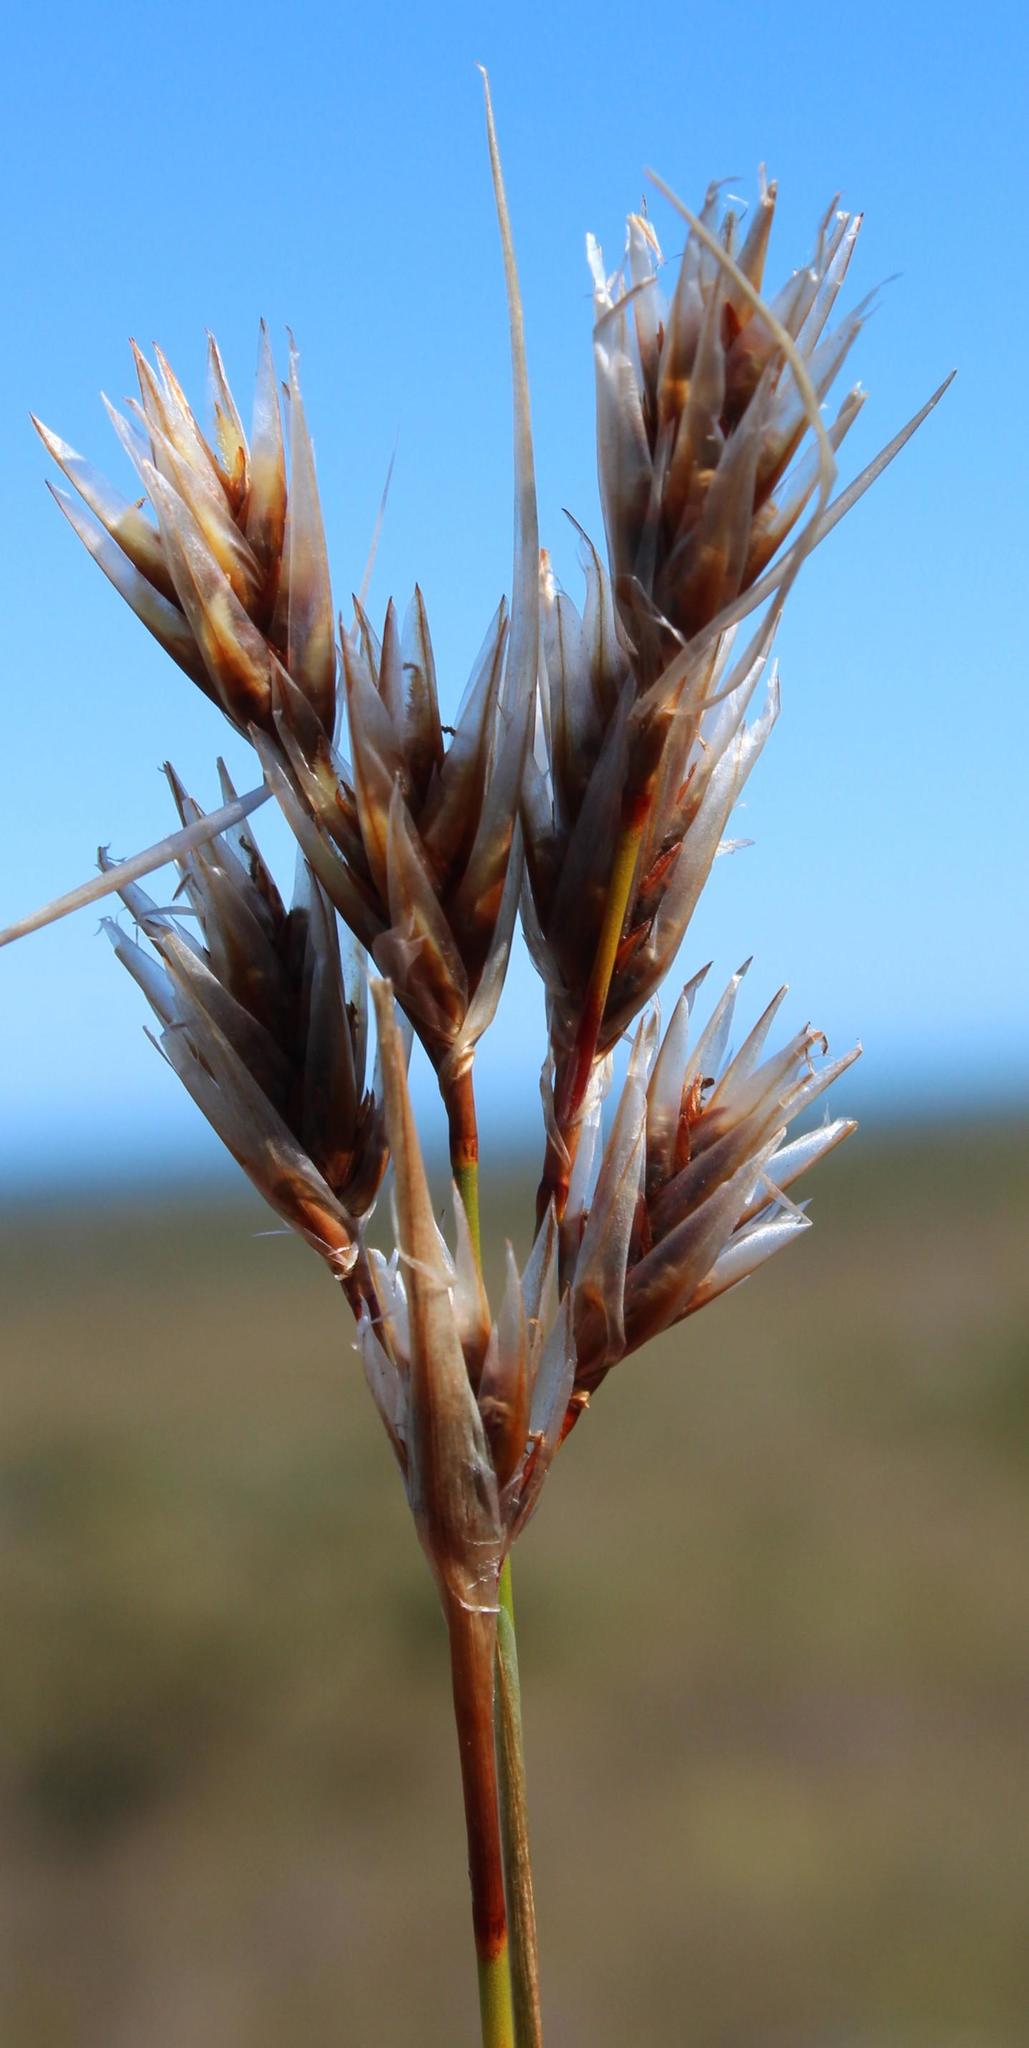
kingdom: Plantae
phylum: Tracheophyta
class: Liliopsida
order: Poales
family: Restionaceae
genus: Thamnochortus
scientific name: Thamnochortus pellucidus
